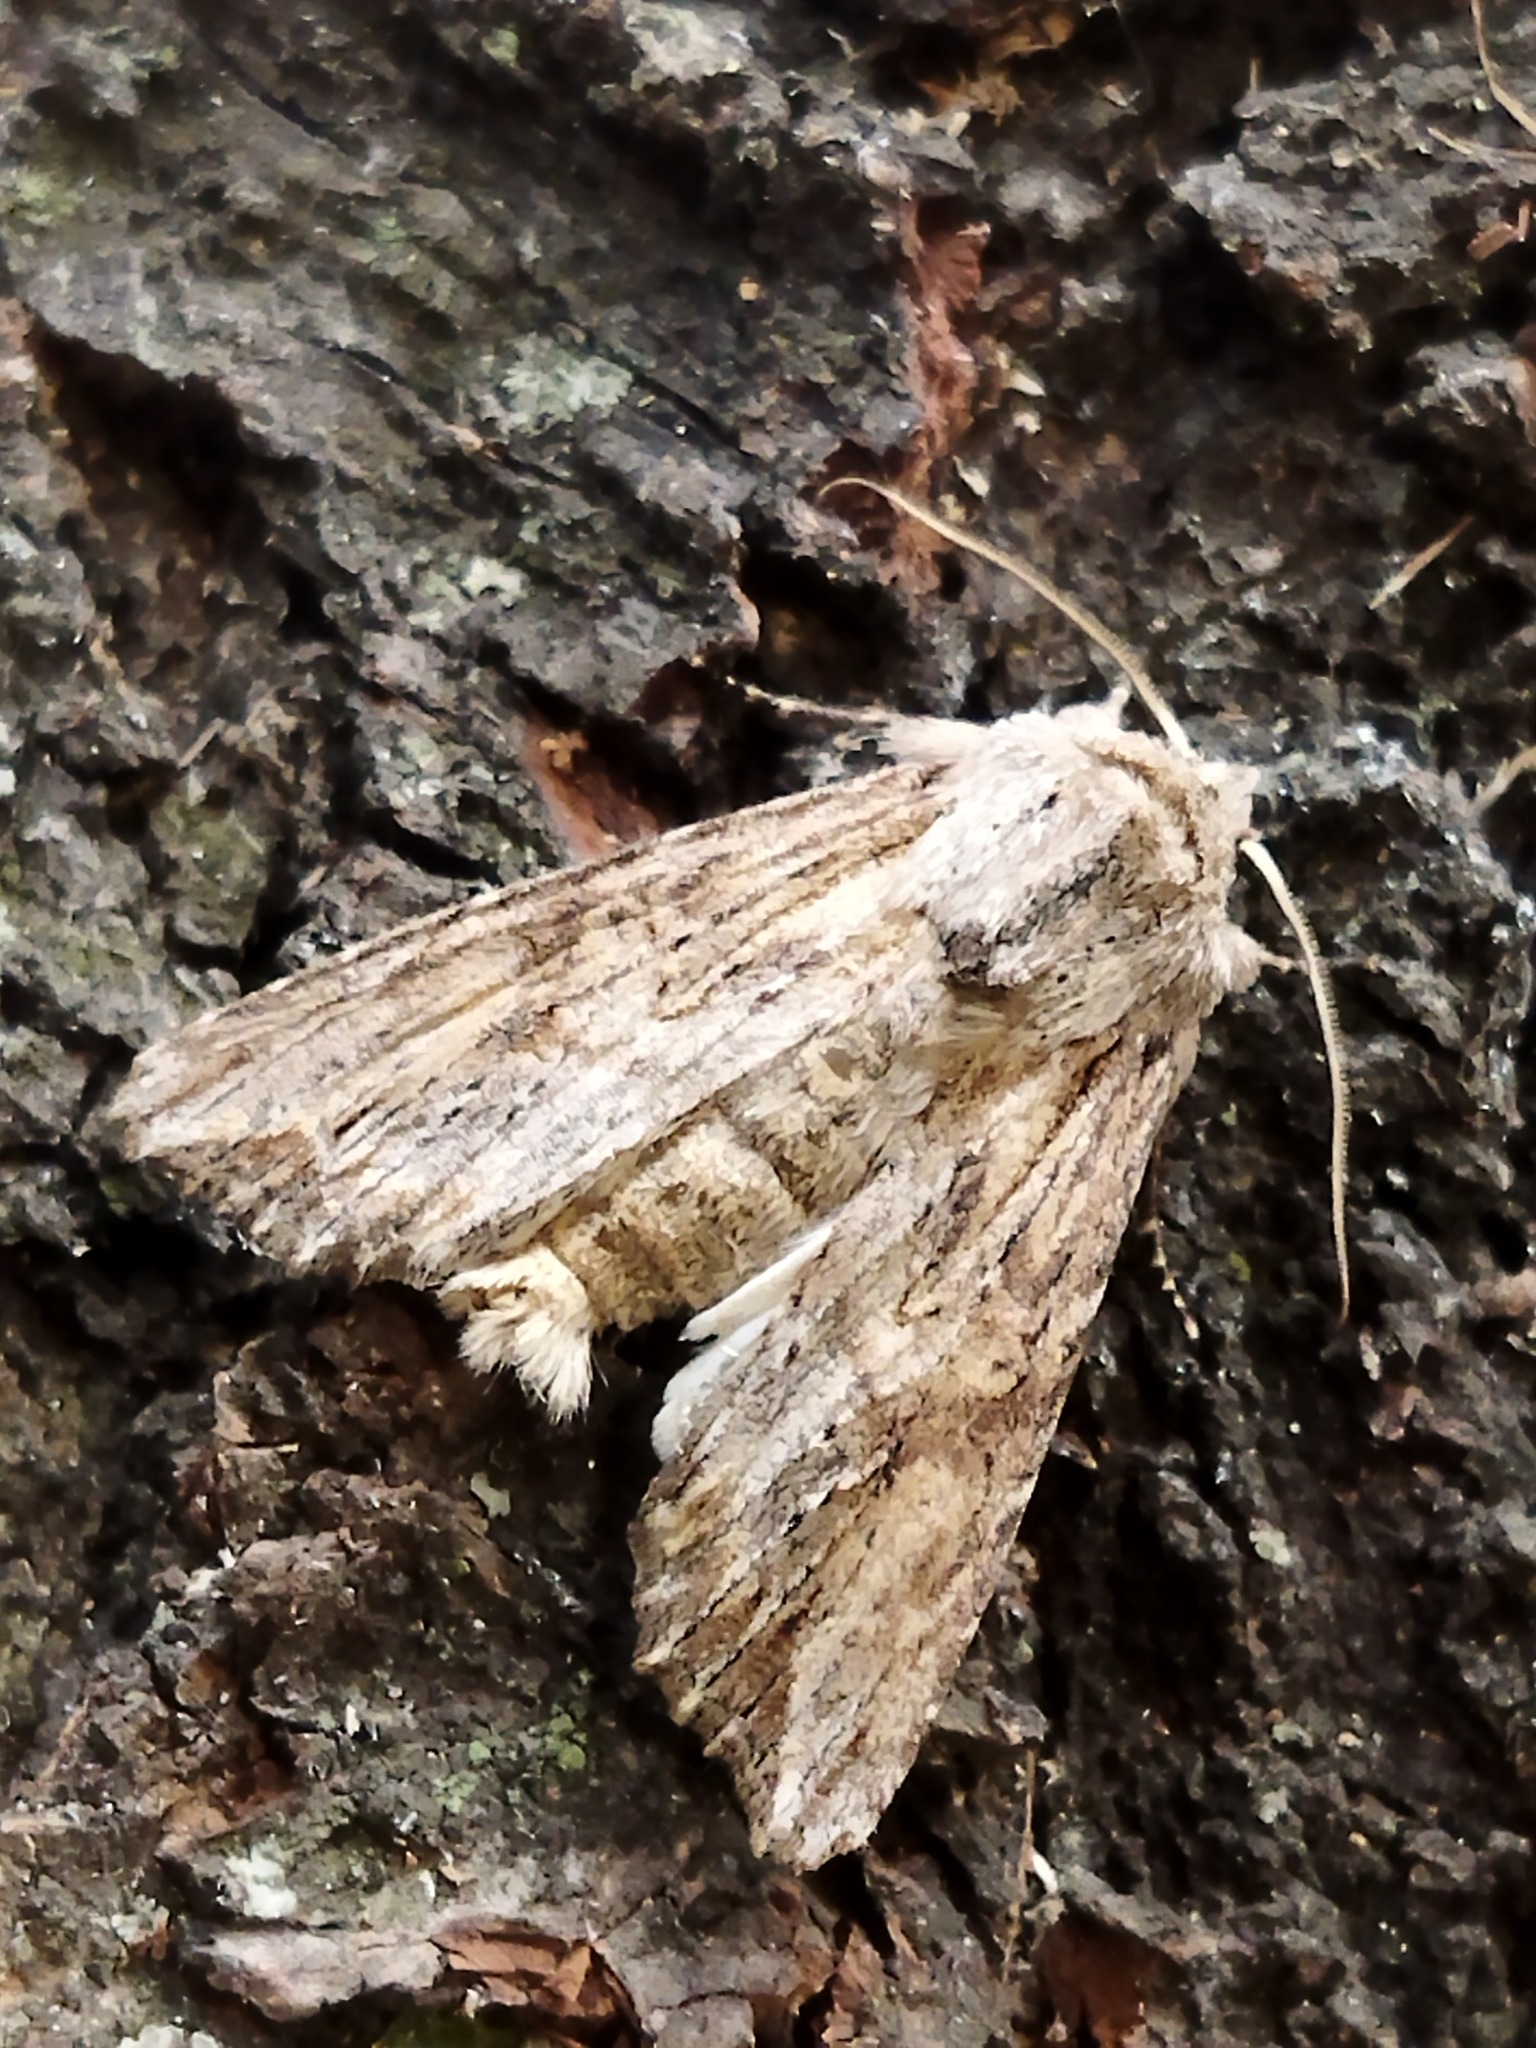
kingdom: Animalia
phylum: Arthropoda
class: Insecta
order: Lepidoptera
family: Noctuidae
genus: Egira
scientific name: Egira
